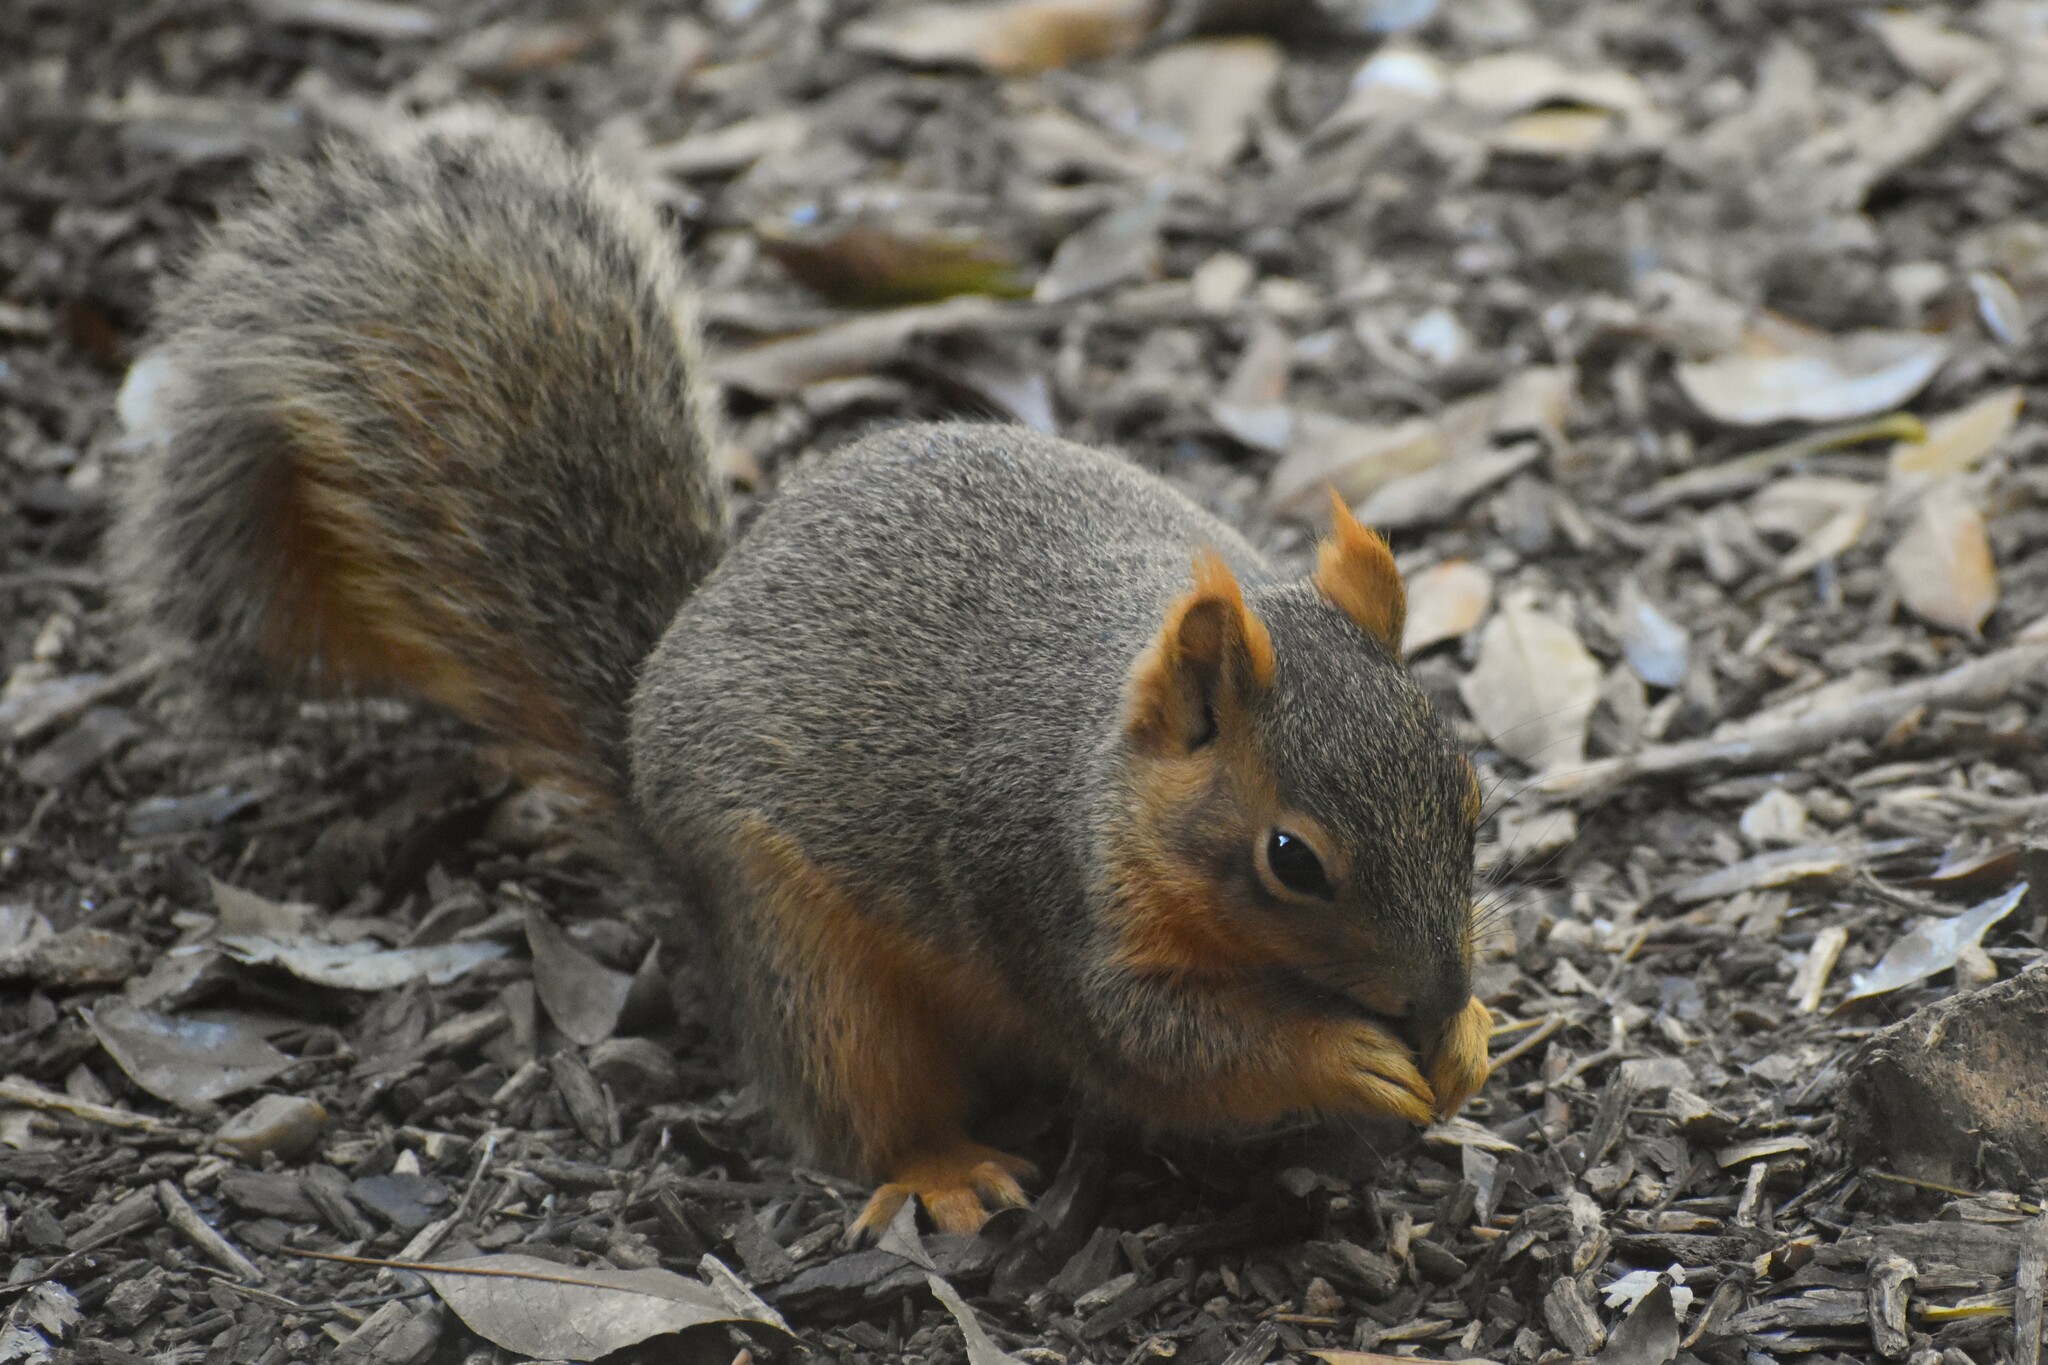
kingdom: Animalia
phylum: Chordata
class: Mammalia
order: Rodentia
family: Sciuridae
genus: Sciurus
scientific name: Sciurus niger
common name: Fox squirrel
